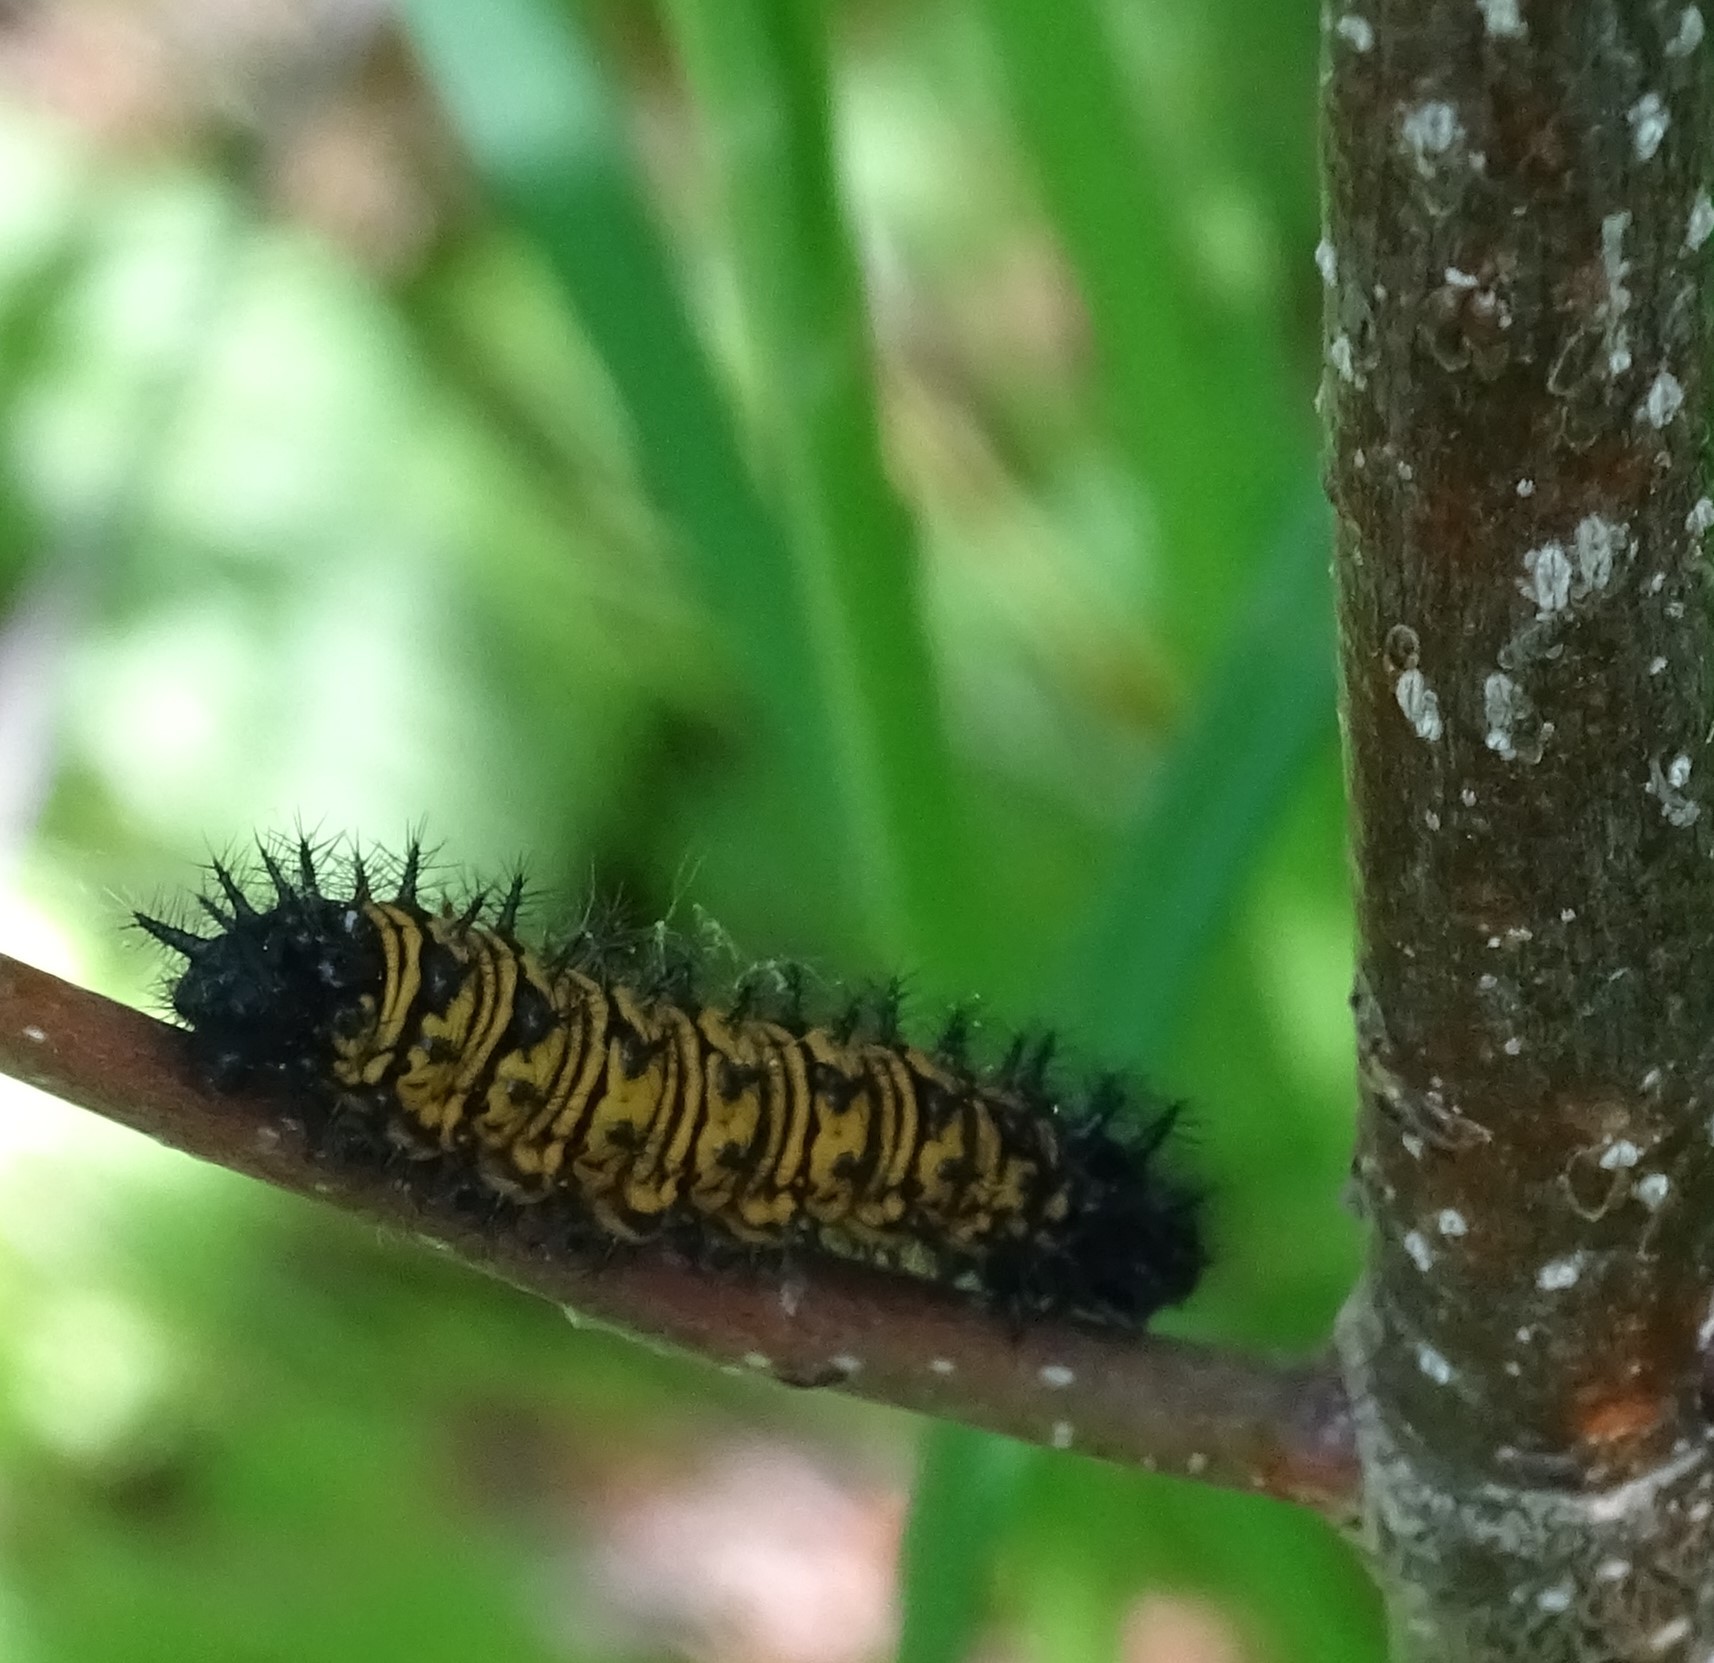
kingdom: Animalia
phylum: Arthropoda
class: Insecta
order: Lepidoptera
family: Nymphalidae
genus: Euphydryas
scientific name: Euphydryas phaeton
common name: Baltimore checkerspot
